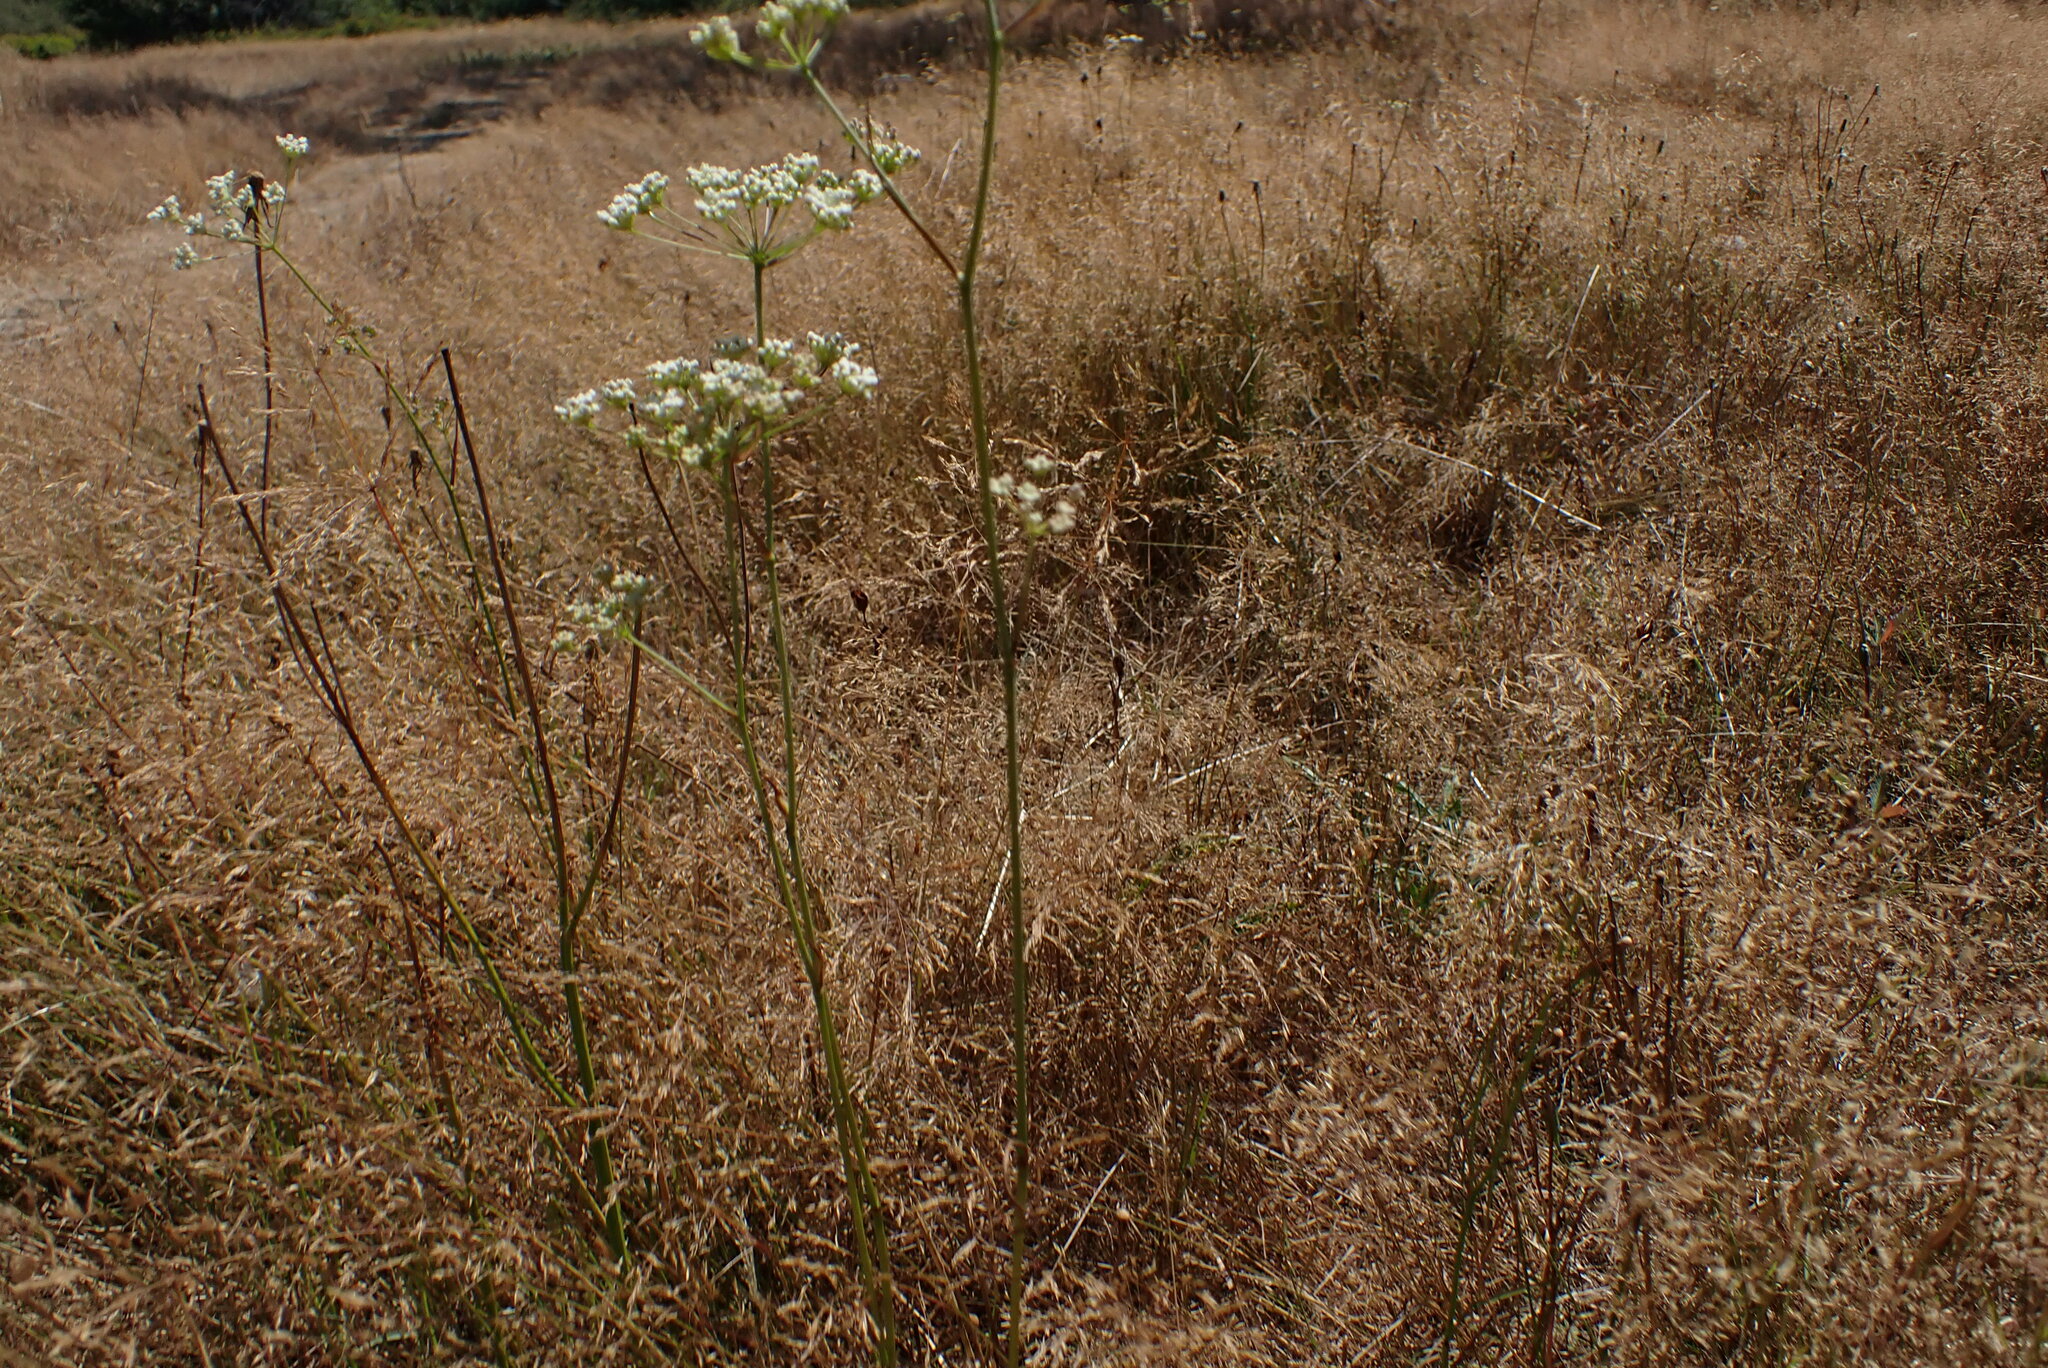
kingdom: Plantae
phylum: Tracheophyta
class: Magnoliopsida
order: Apiales
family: Apiaceae
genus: Perideridia
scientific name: Perideridia gairdneri
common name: False caraway
